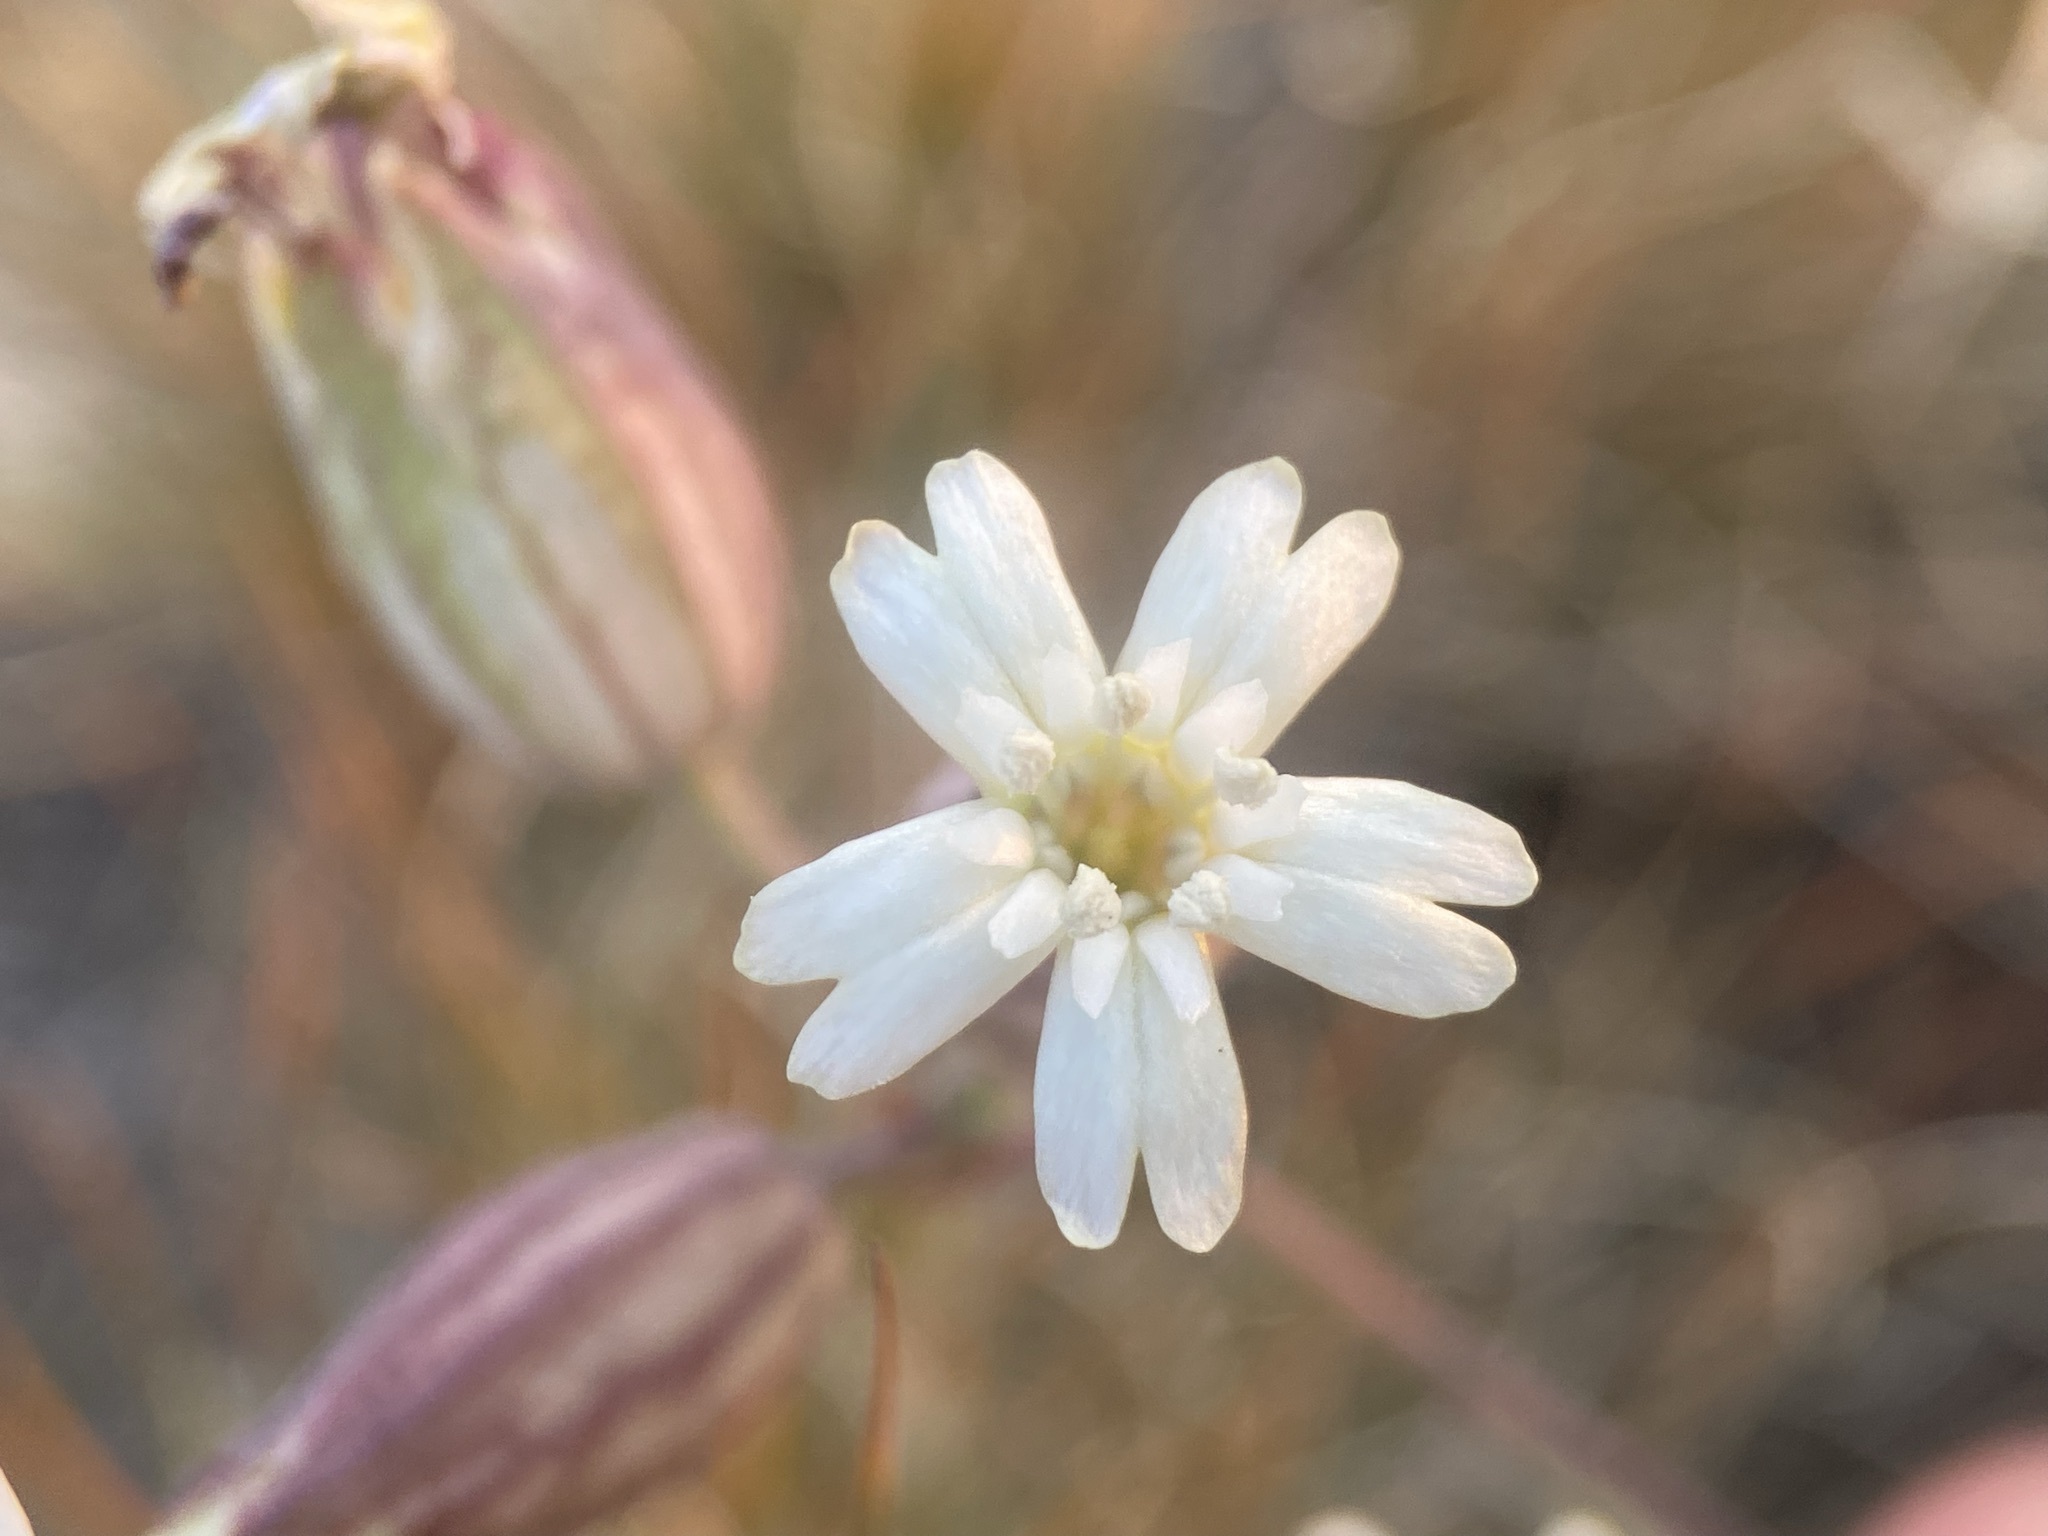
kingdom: Plantae
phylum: Tracheophyta
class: Magnoliopsida
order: Caryophyllales
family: Caryophyllaceae
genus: Silene
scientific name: Silene douglasii
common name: Douglas's catchfly
